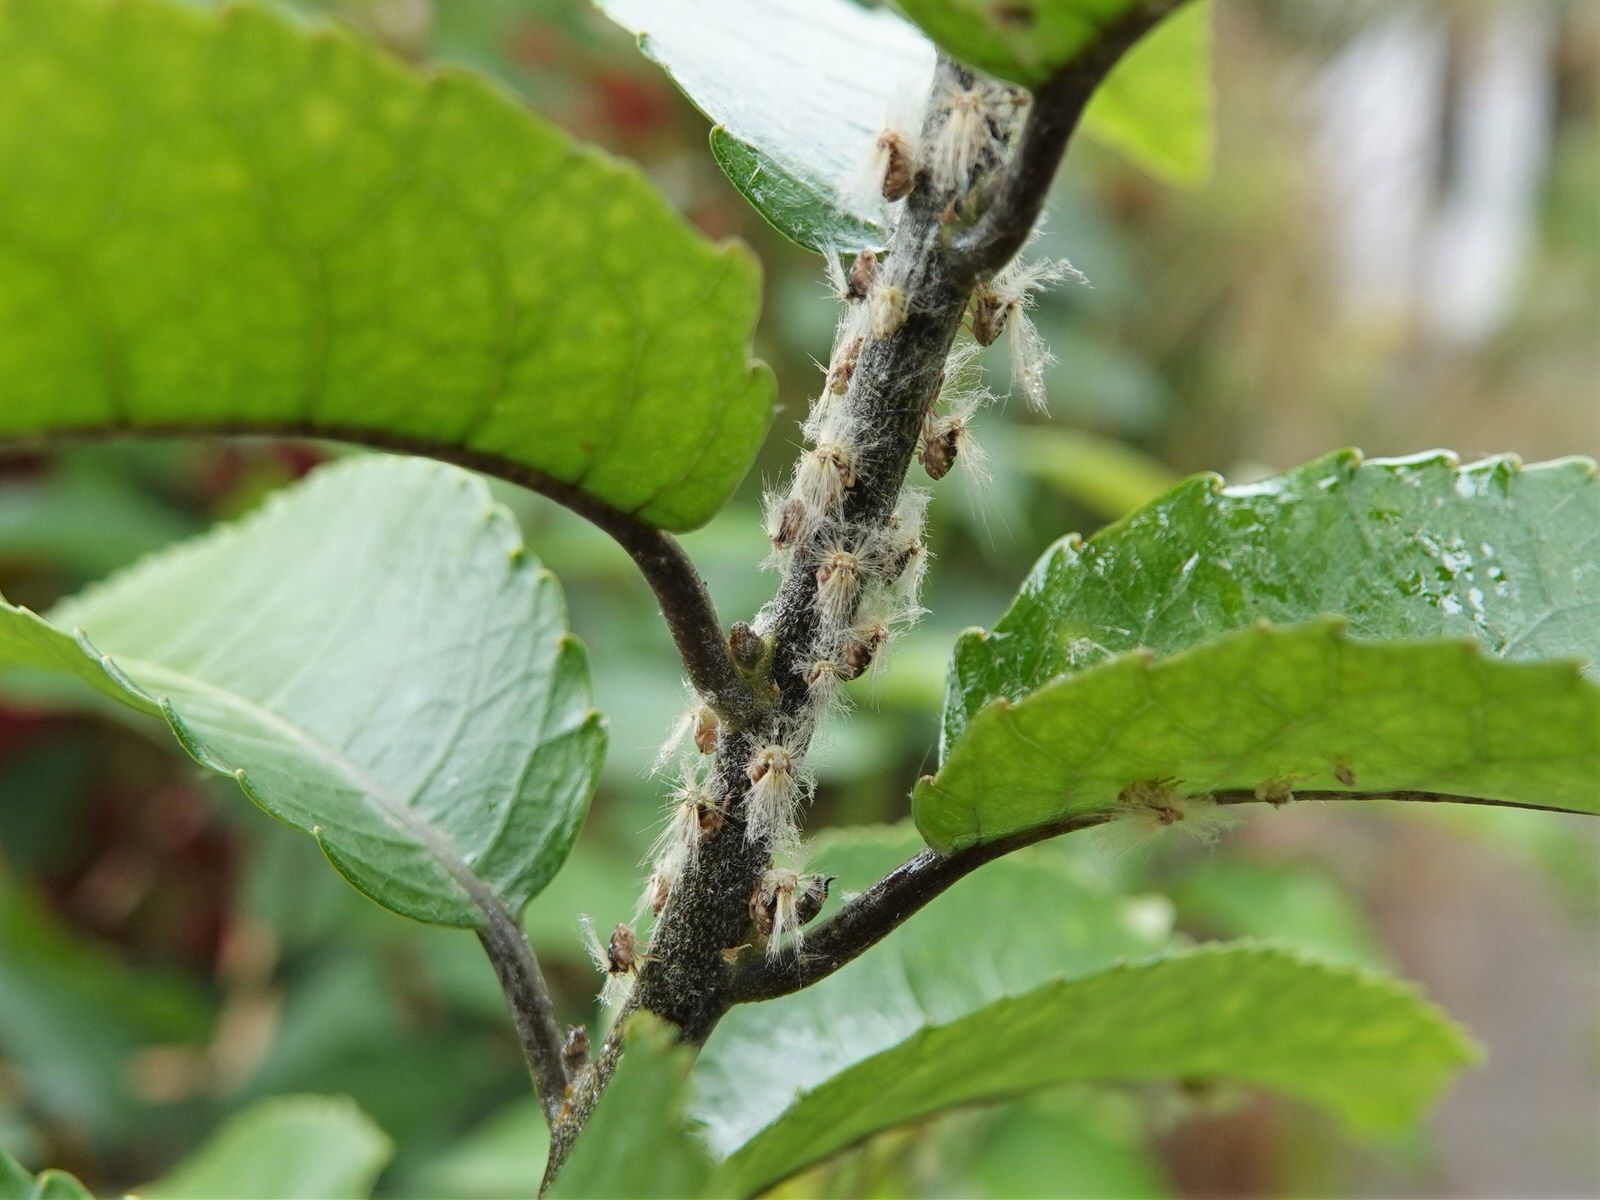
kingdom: Animalia
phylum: Arthropoda
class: Insecta
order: Hemiptera
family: Ricaniidae
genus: Scolypopa
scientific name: Scolypopa australis
